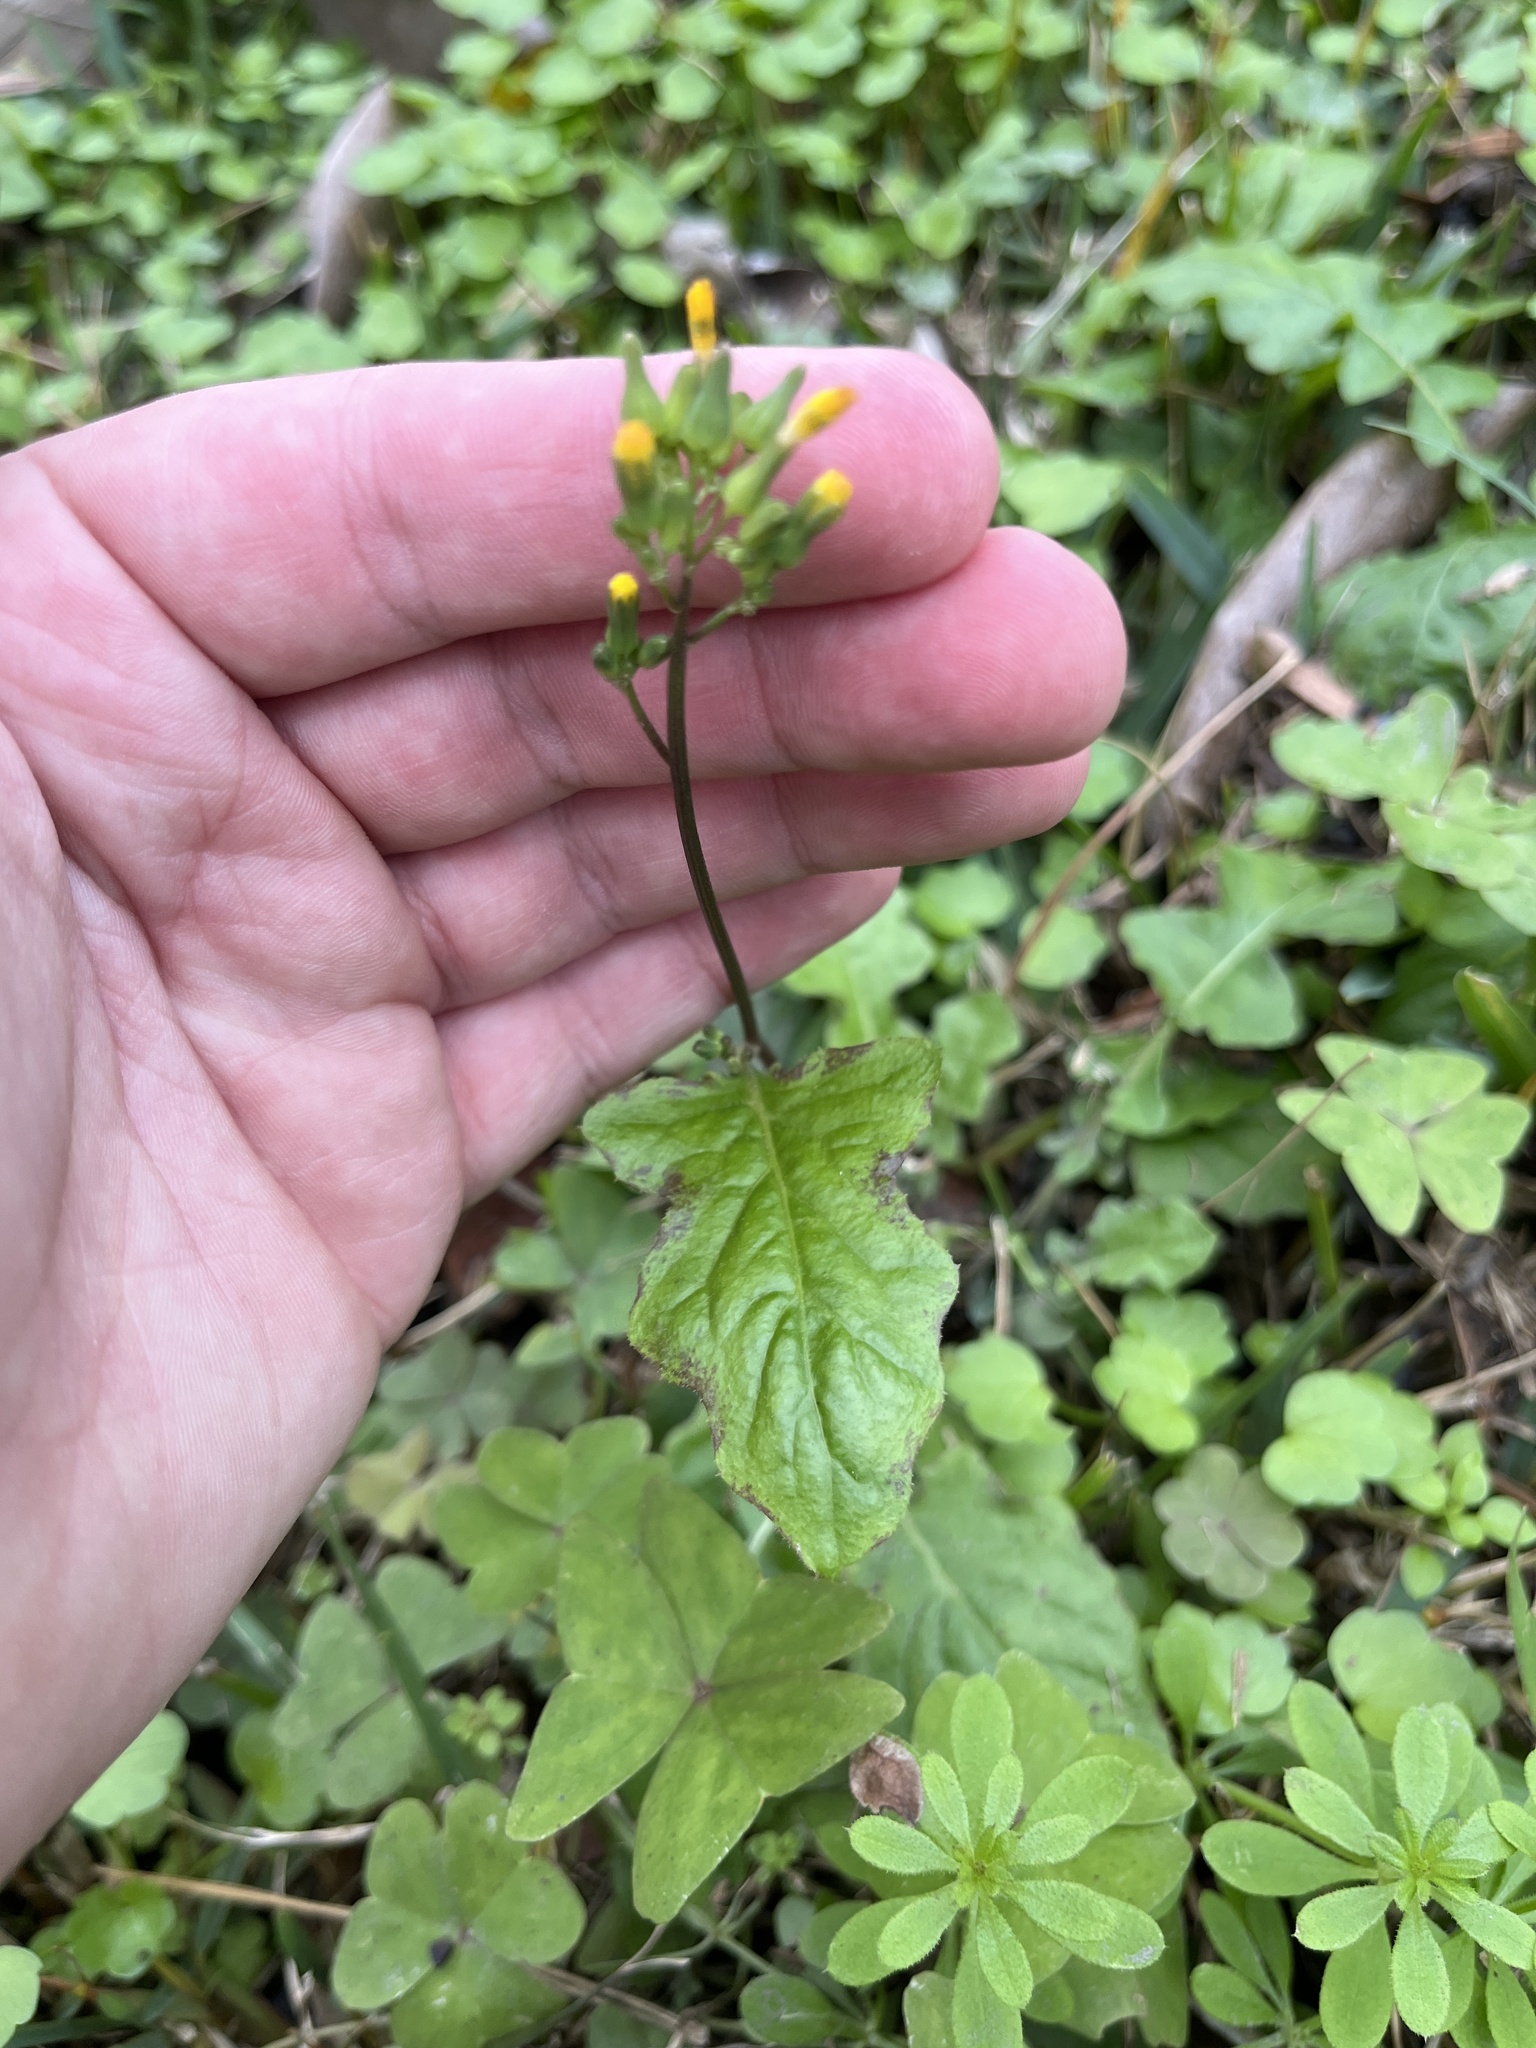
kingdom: Plantae
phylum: Tracheophyta
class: Magnoliopsida
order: Asterales
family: Asteraceae
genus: Youngia
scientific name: Youngia japonica
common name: Oriental false hawksbeard
